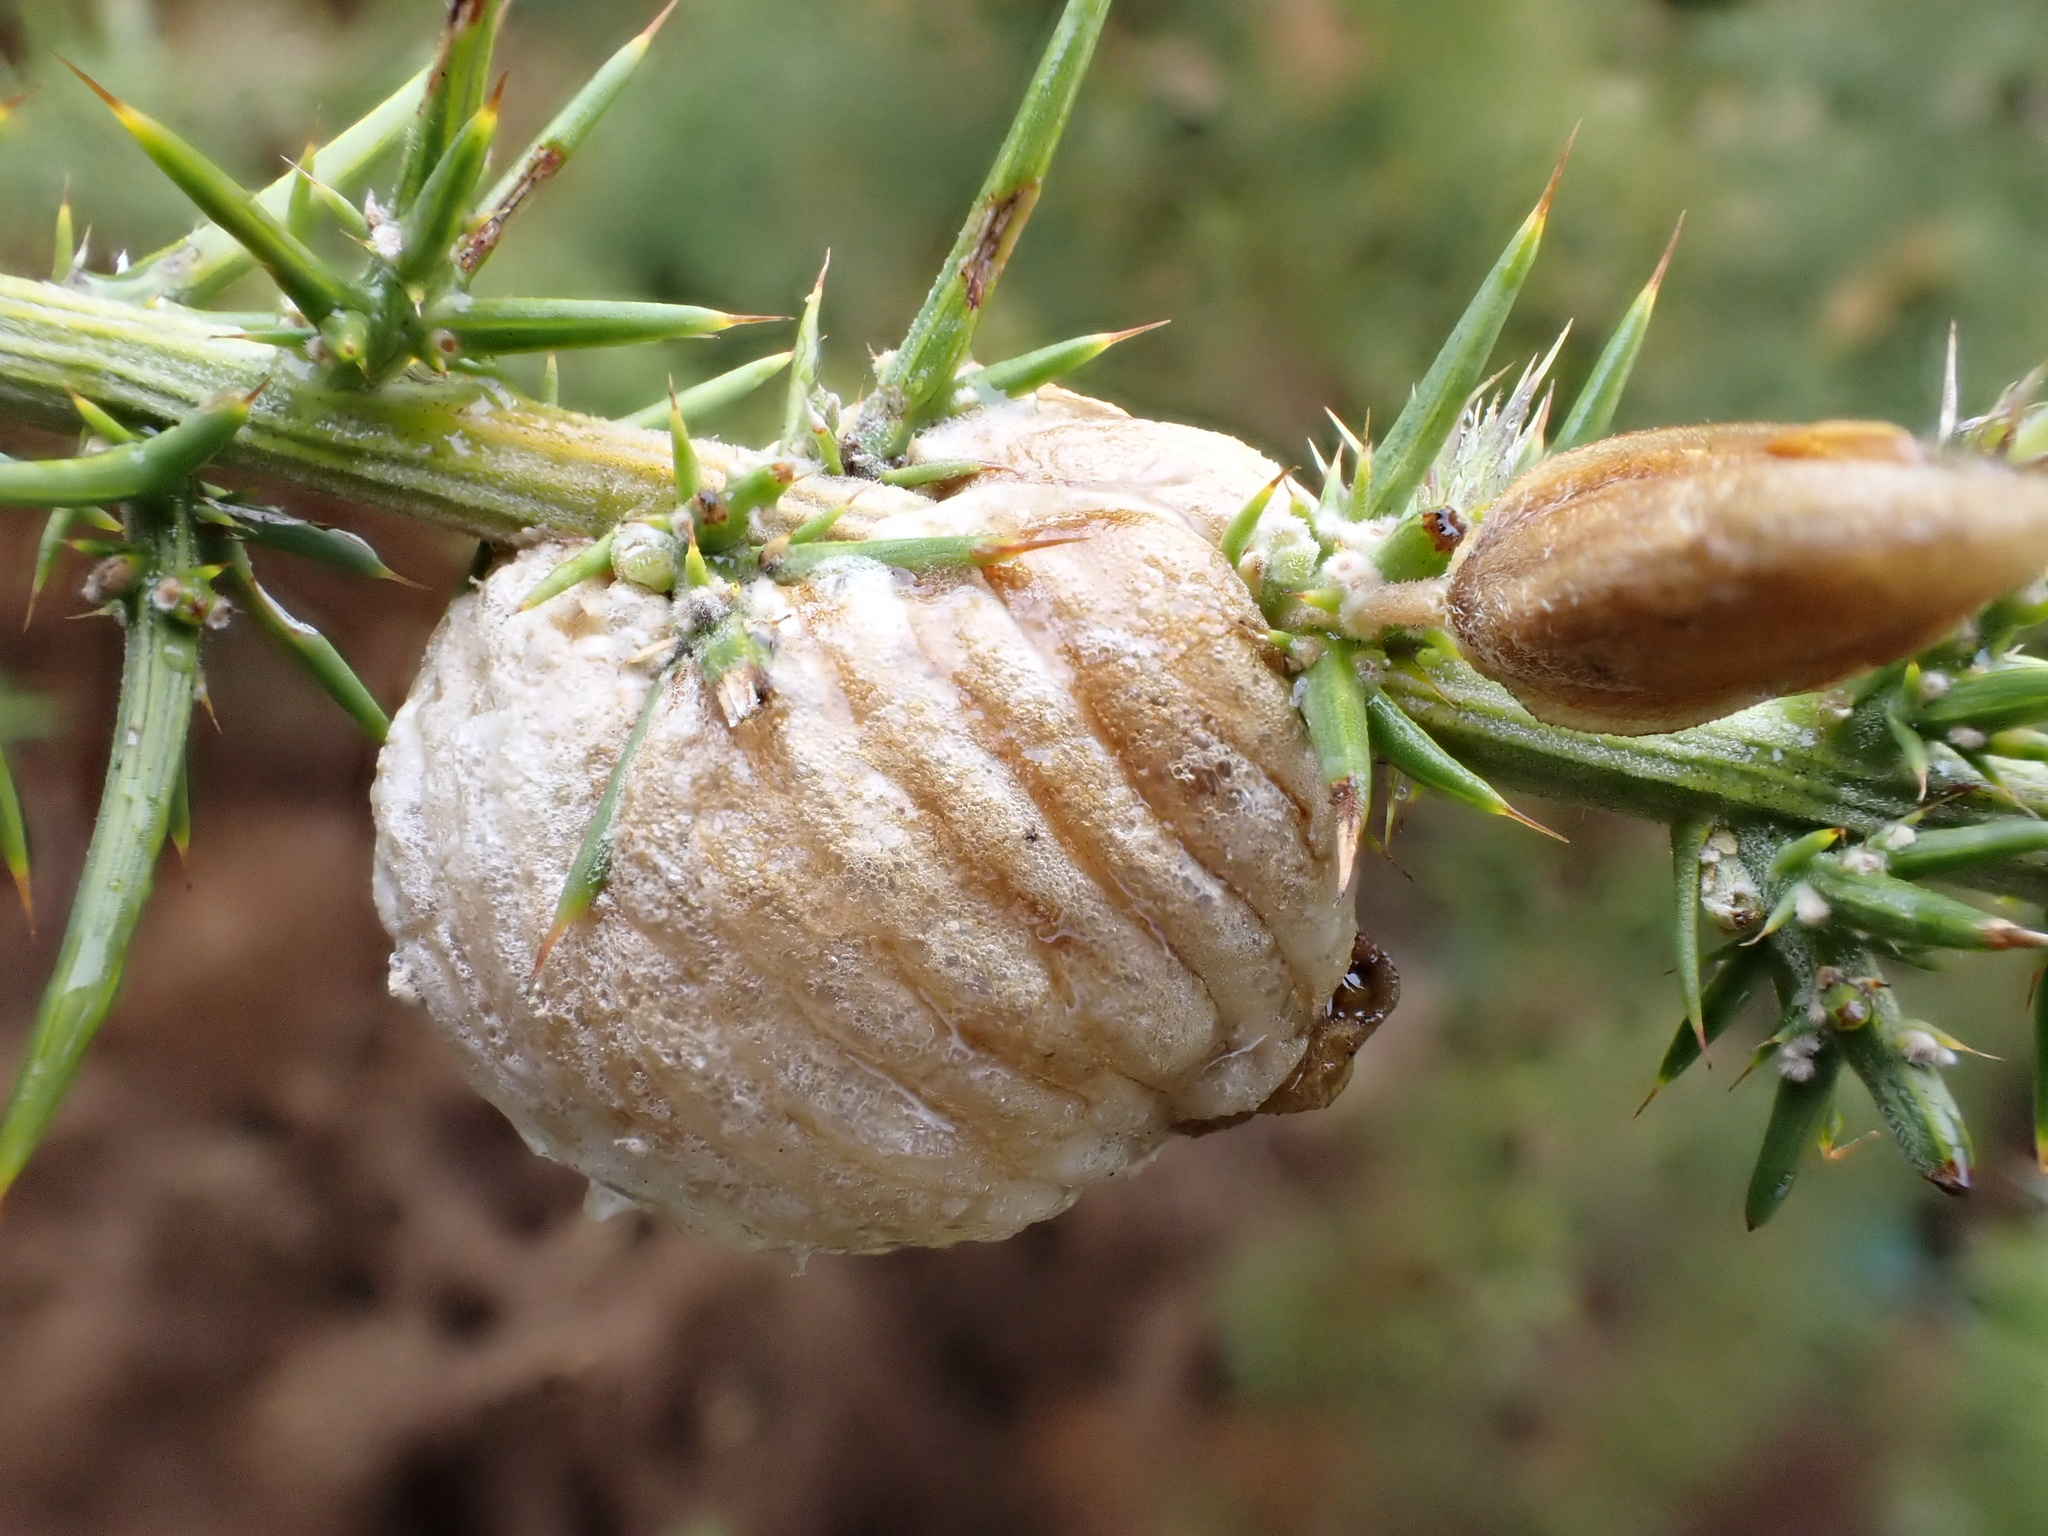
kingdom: Animalia
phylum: Arthropoda
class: Insecta
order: Mantodea
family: Mantidae
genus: Sphodromantis
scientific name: Sphodromantis viridis
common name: Giant african mantis
